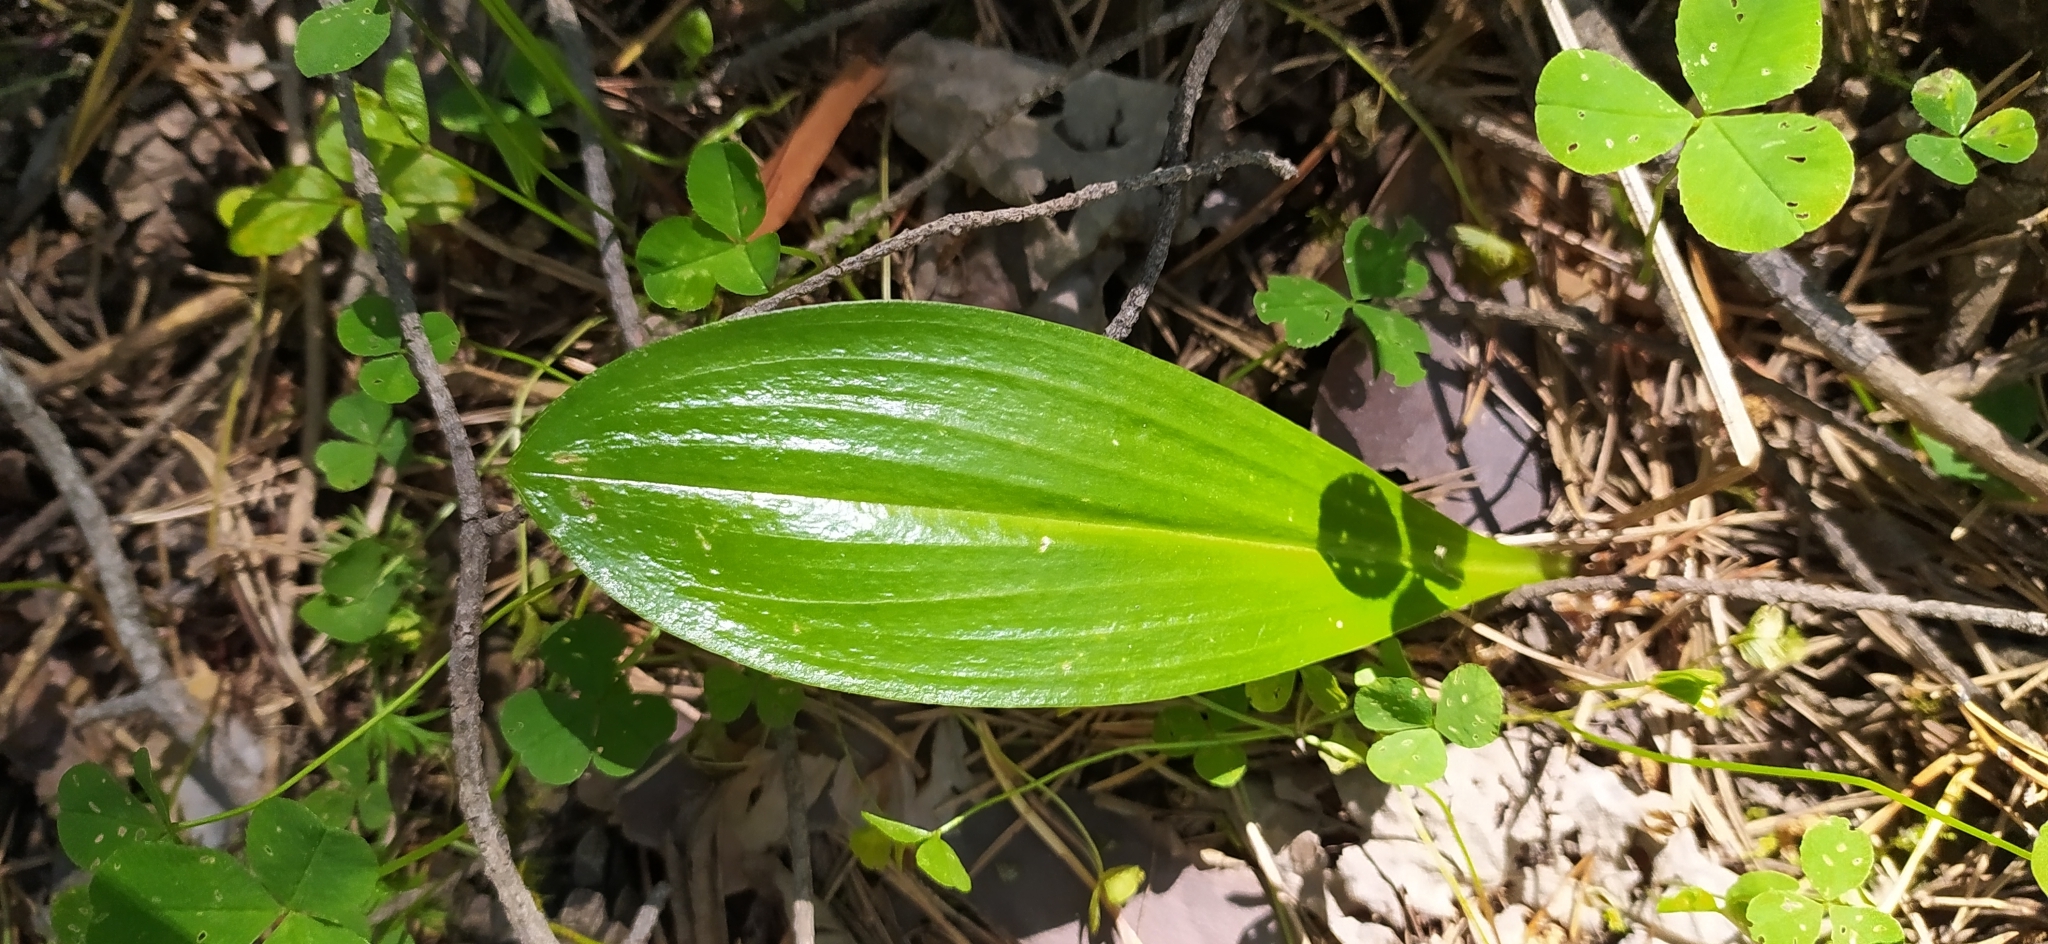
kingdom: Plantae
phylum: Tracheophyta
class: Liliopsida
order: Asparagales
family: Orchidaceae
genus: Platanthera
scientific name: Platanthera bifolia
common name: Lesser butterfly-orchid
